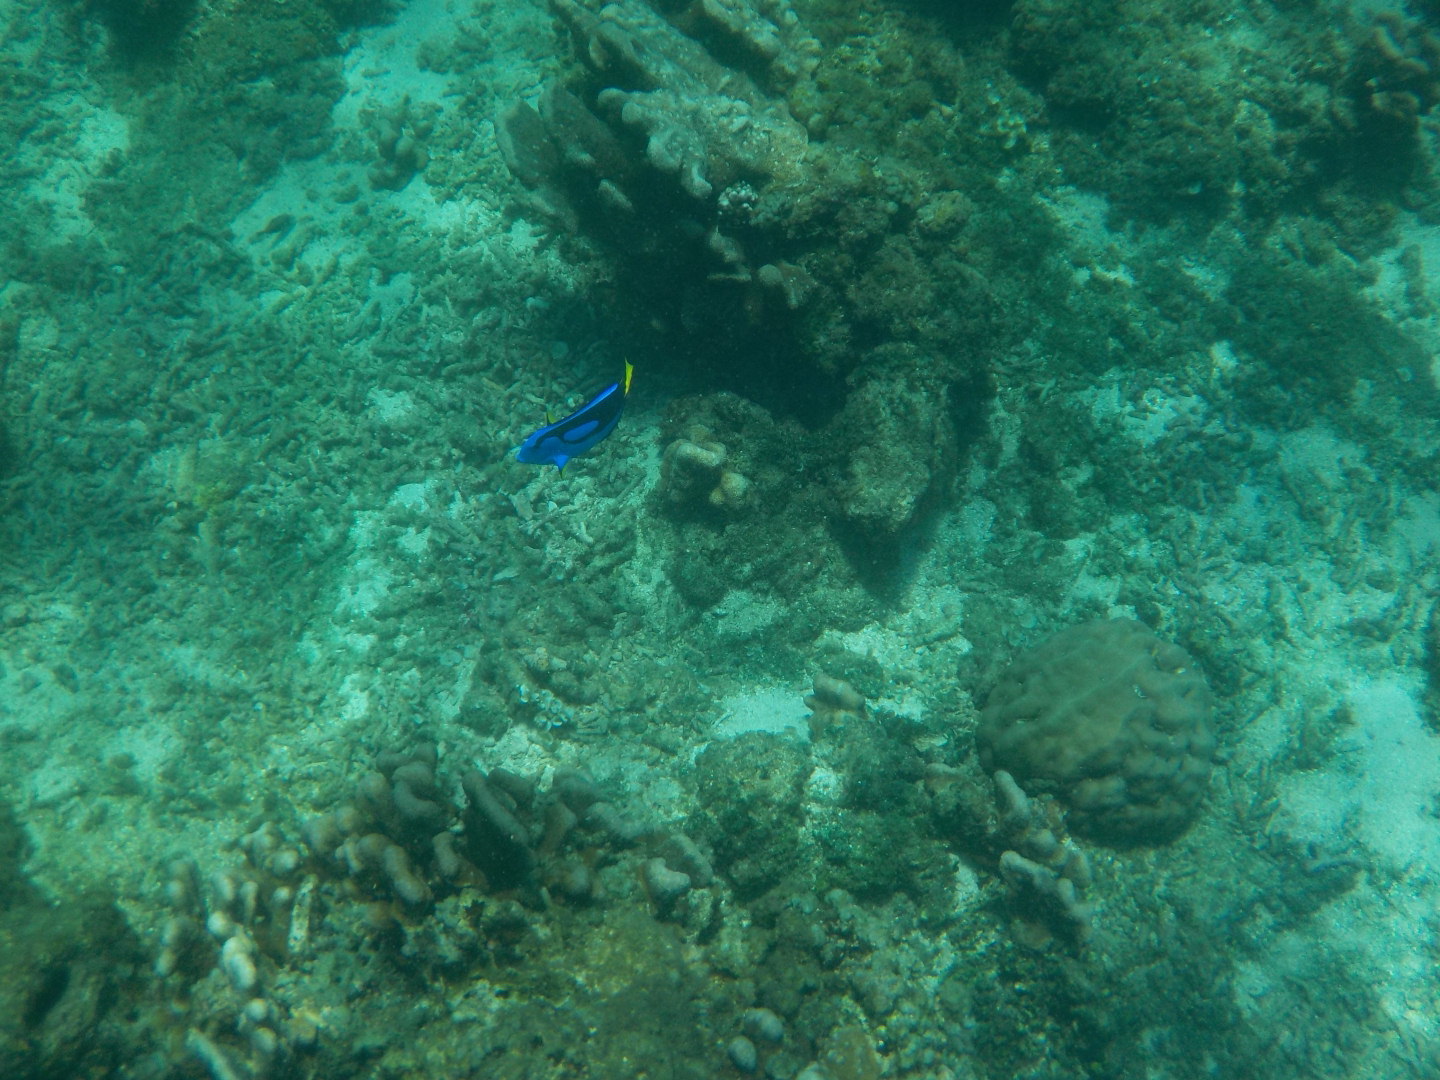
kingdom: Animalia
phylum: Chordata
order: Perciformes
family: Acanthuridae
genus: Paracanthurus
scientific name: Paracanthurus hepatus
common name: Palette surgeonfish
